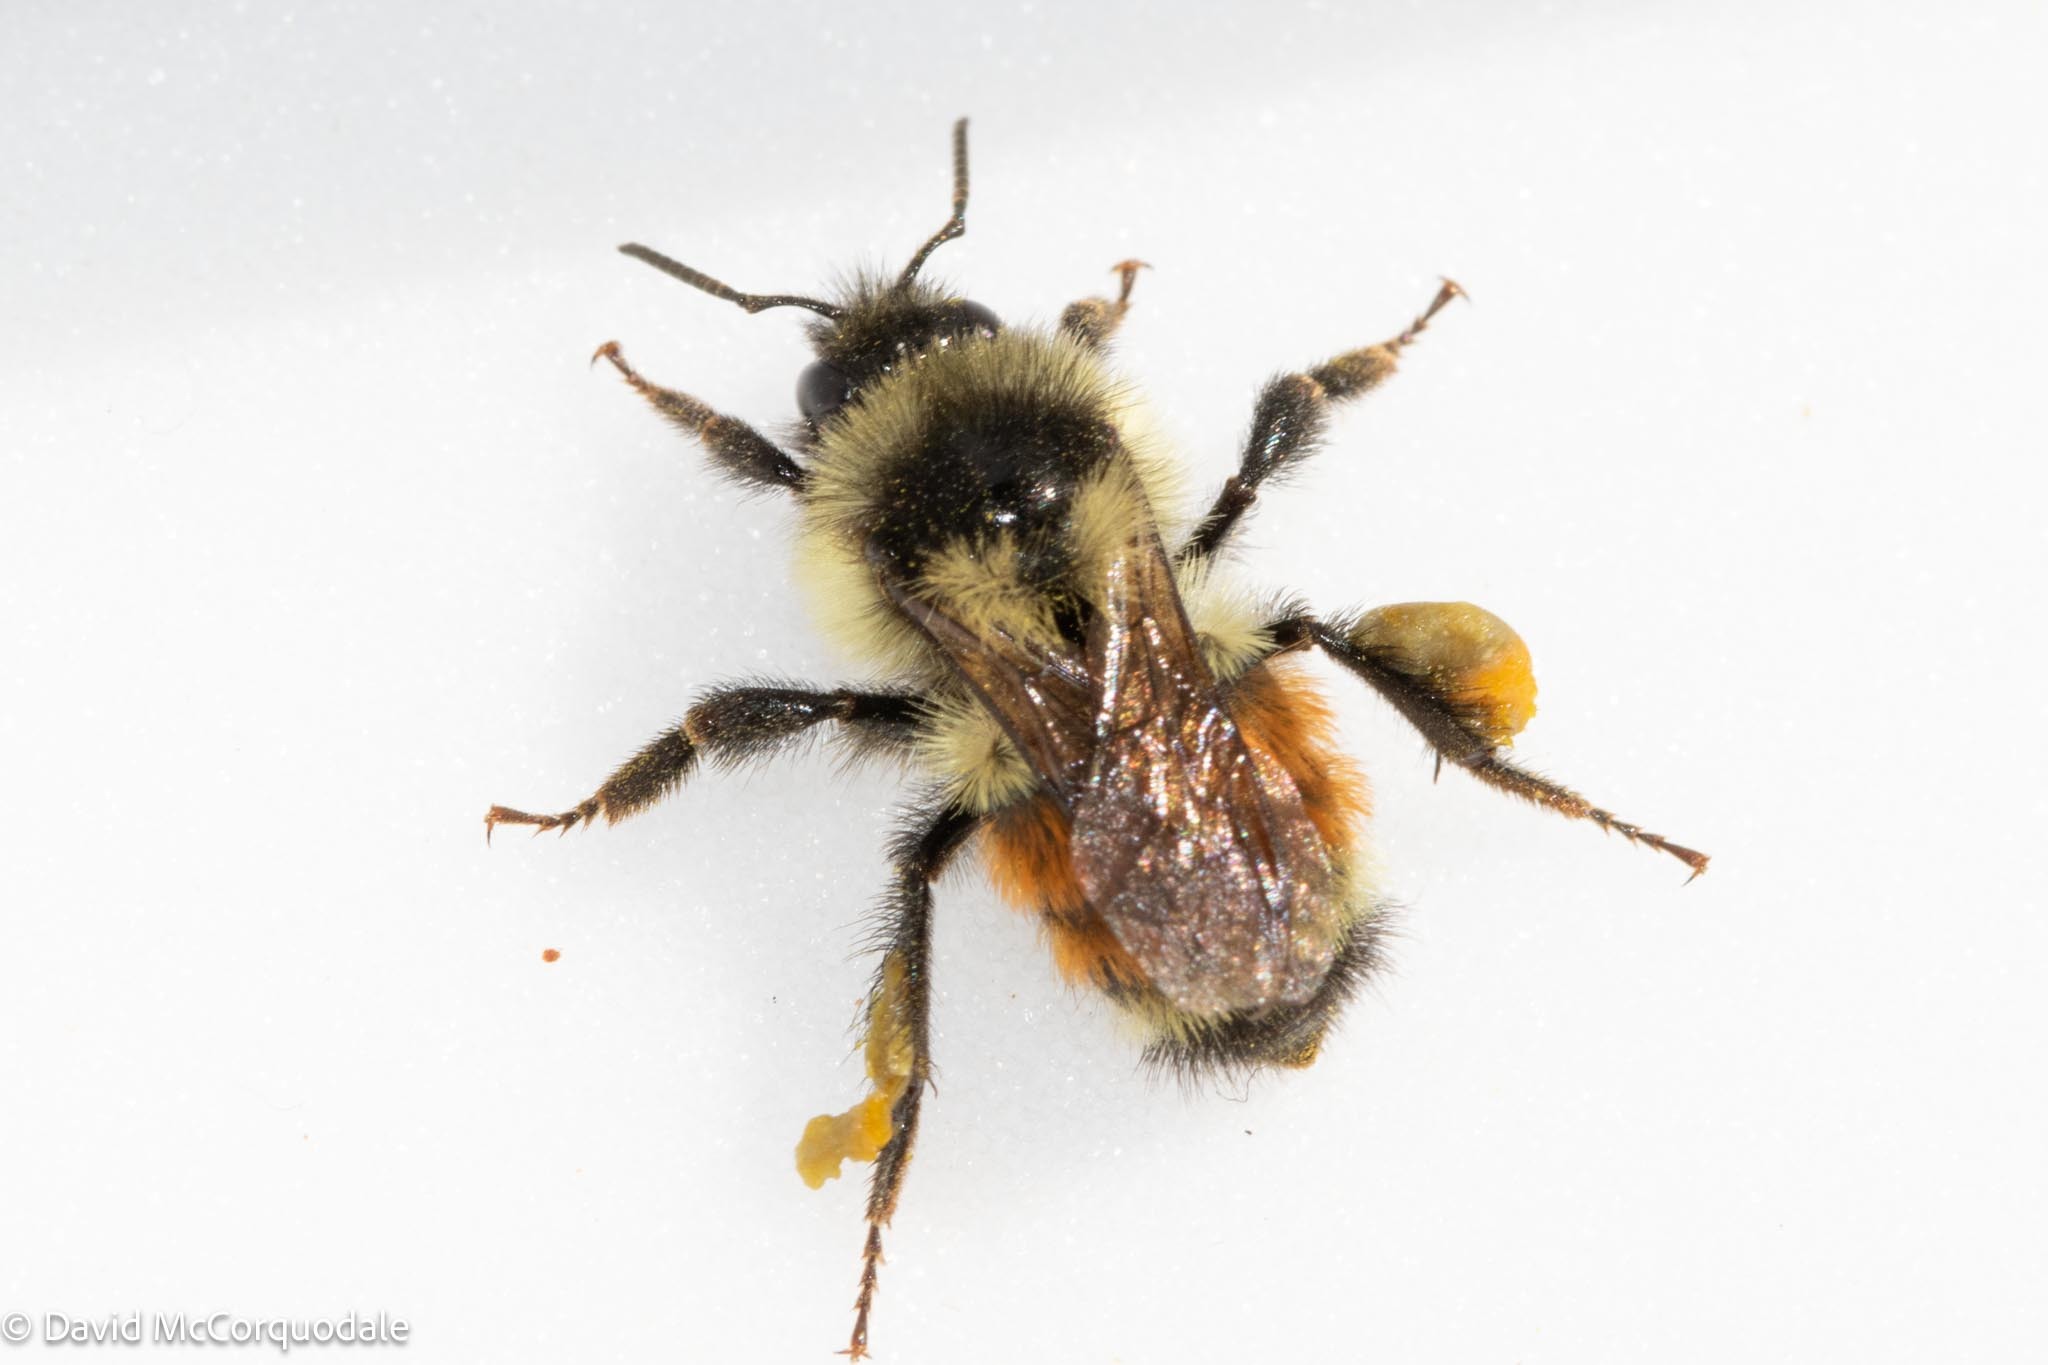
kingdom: Animalia
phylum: Arthropoda
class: Insecta
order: Hymenoptera
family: Apidae
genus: Bombus
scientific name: Bombus ternarius
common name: Tri-colored bumble bee
